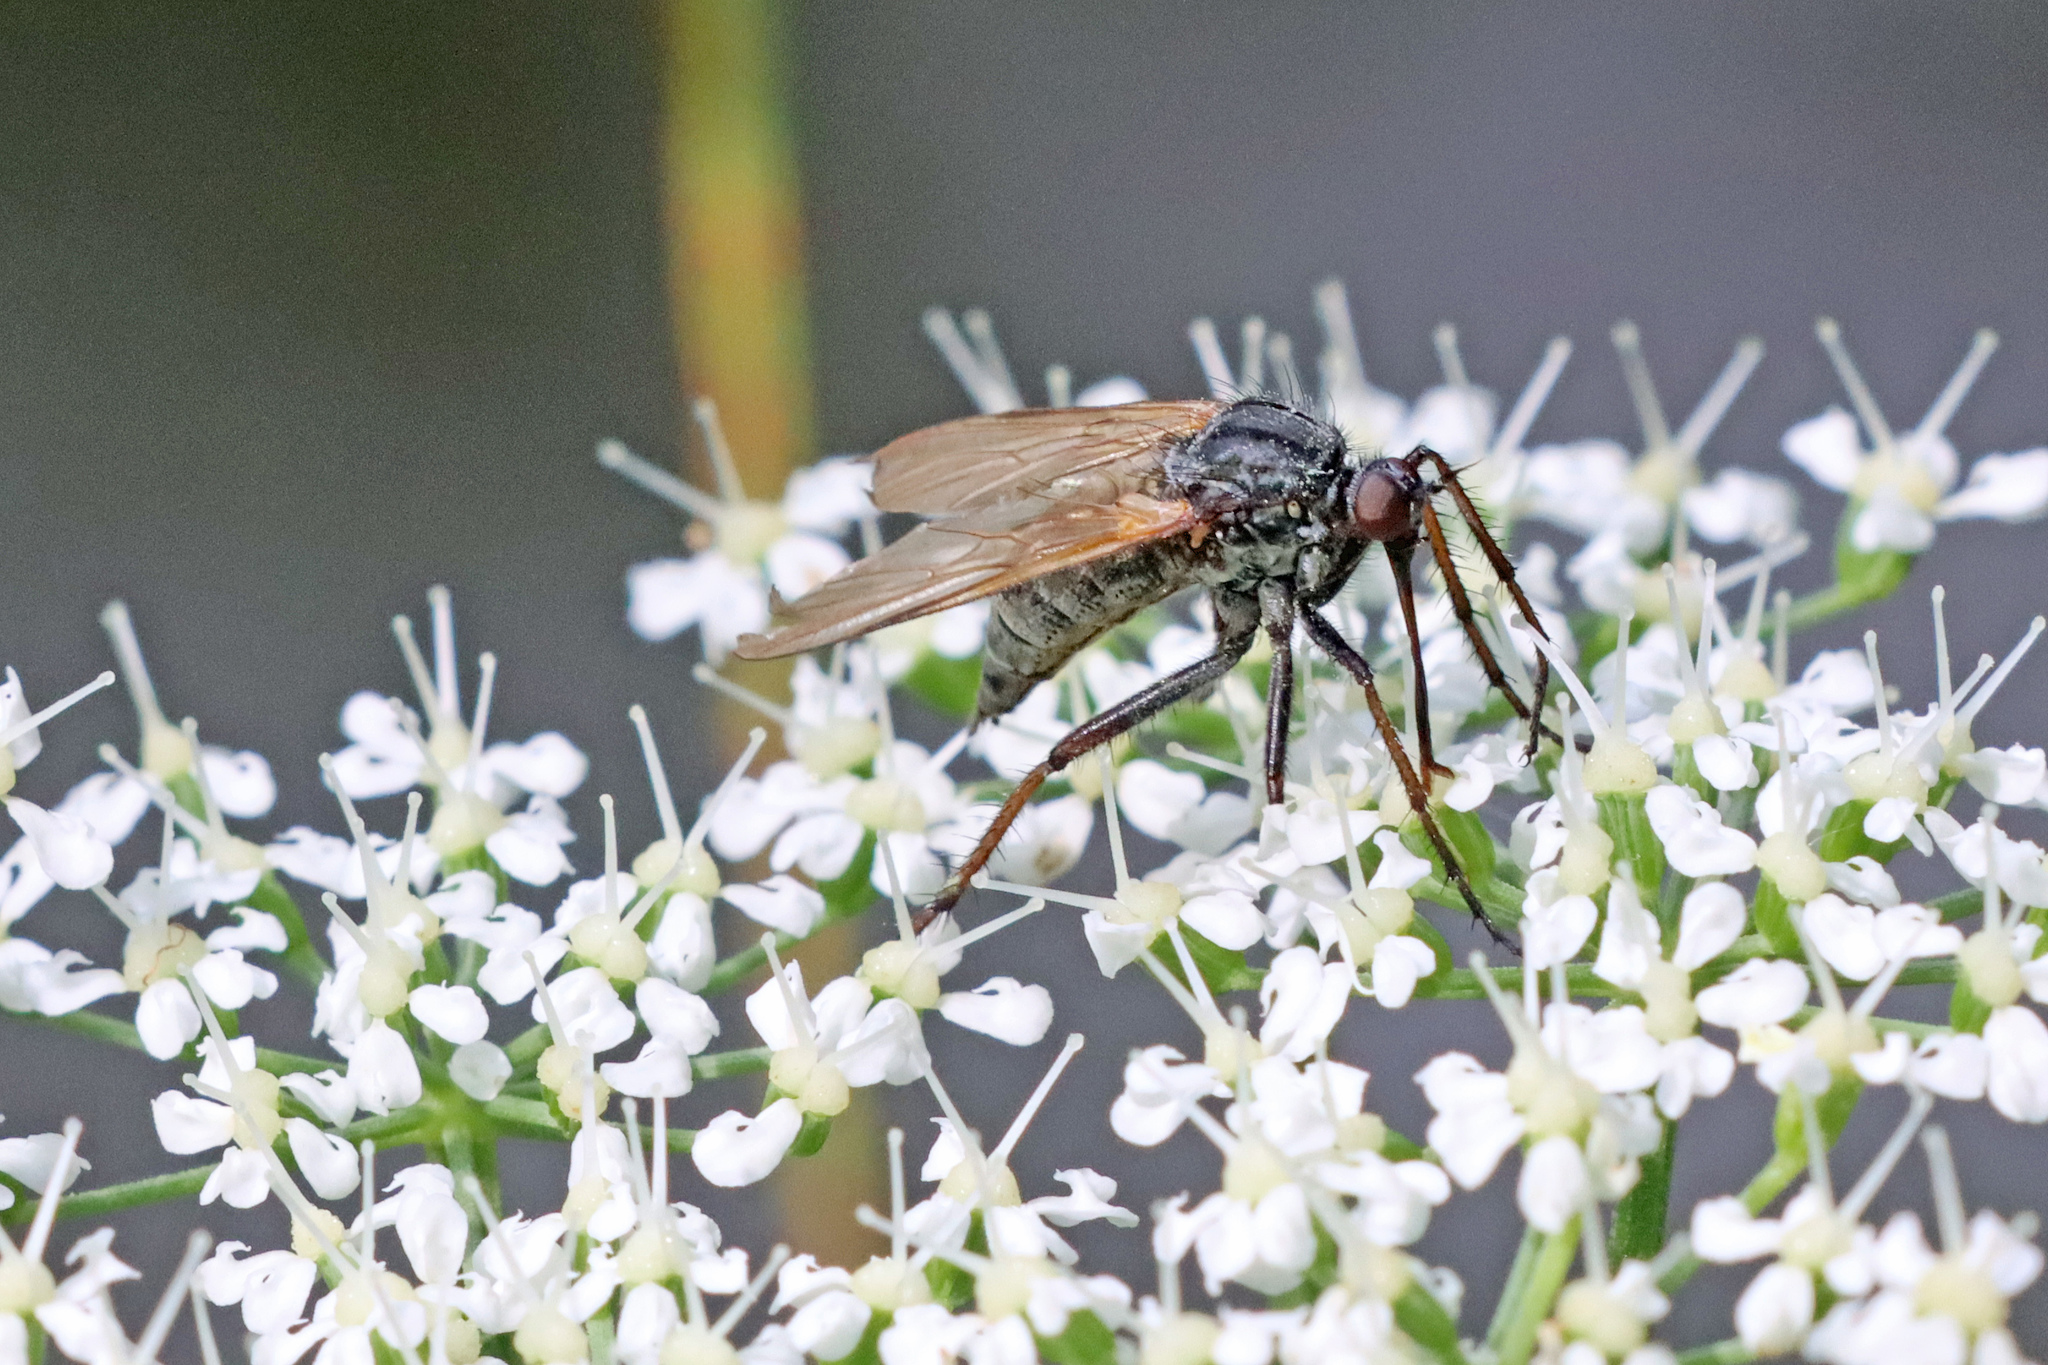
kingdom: Animalia
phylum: Arthropoda
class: Insecta
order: Diptera
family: Empididae
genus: Empis
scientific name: Empis tessellata
